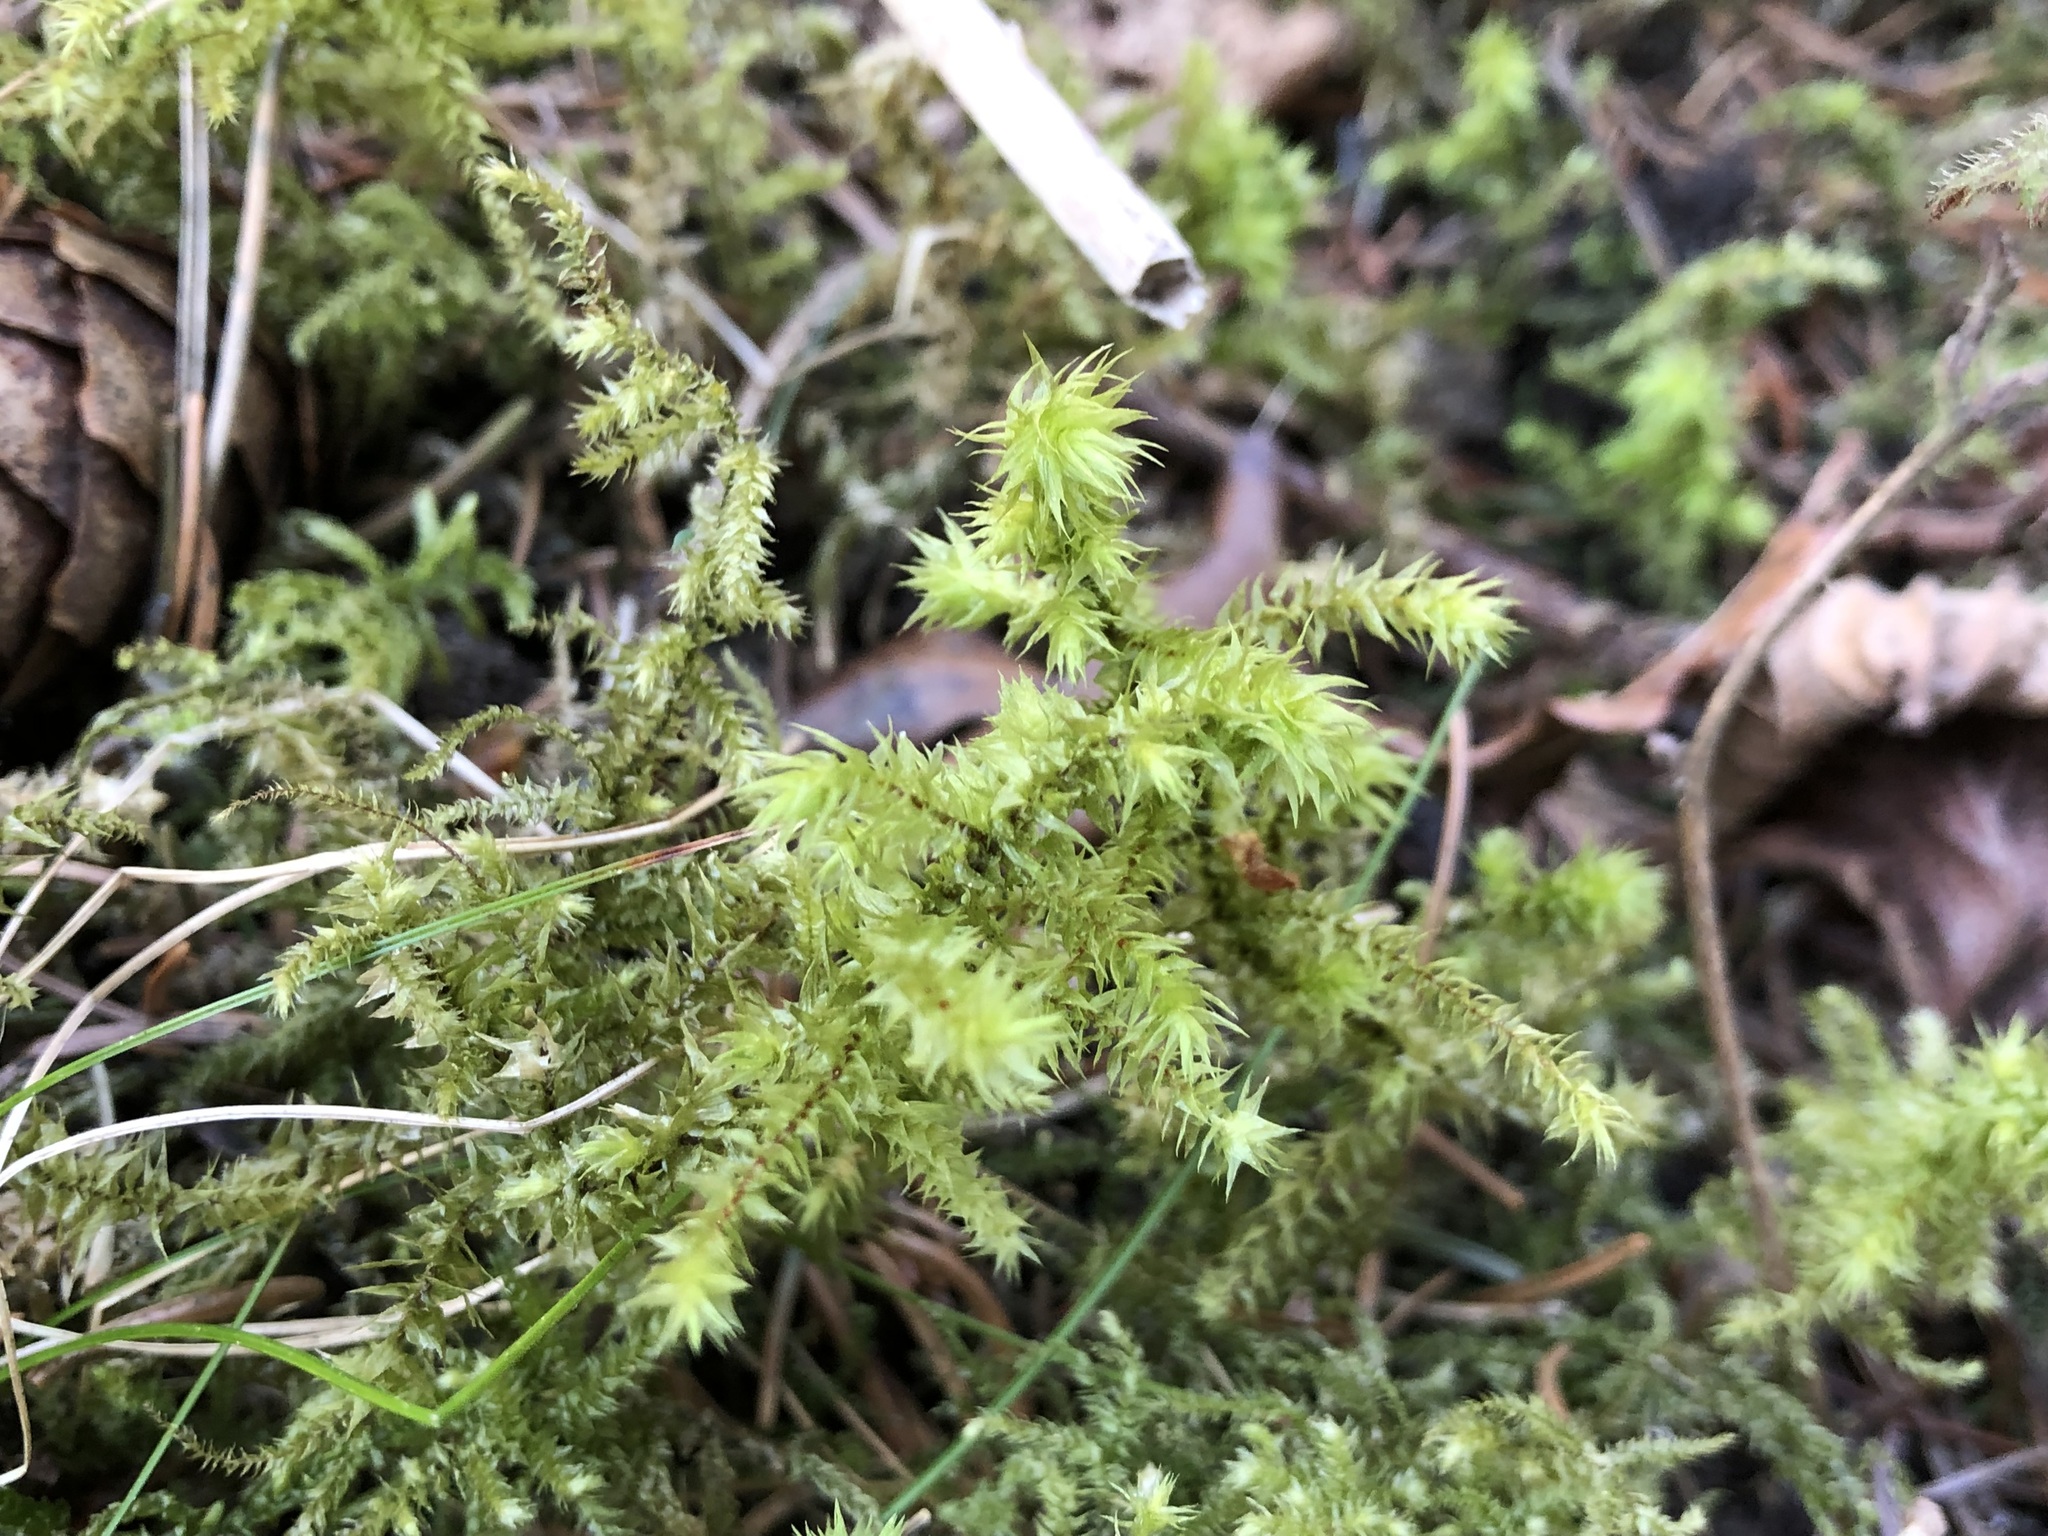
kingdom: Plantae
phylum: Bryophyta
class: Bryopsida
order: Hypnales
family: Hylocomiaceae
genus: Hylocomiadelphus
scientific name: Hylocomiadelphus triquetrus
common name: Rough goose neck moss
